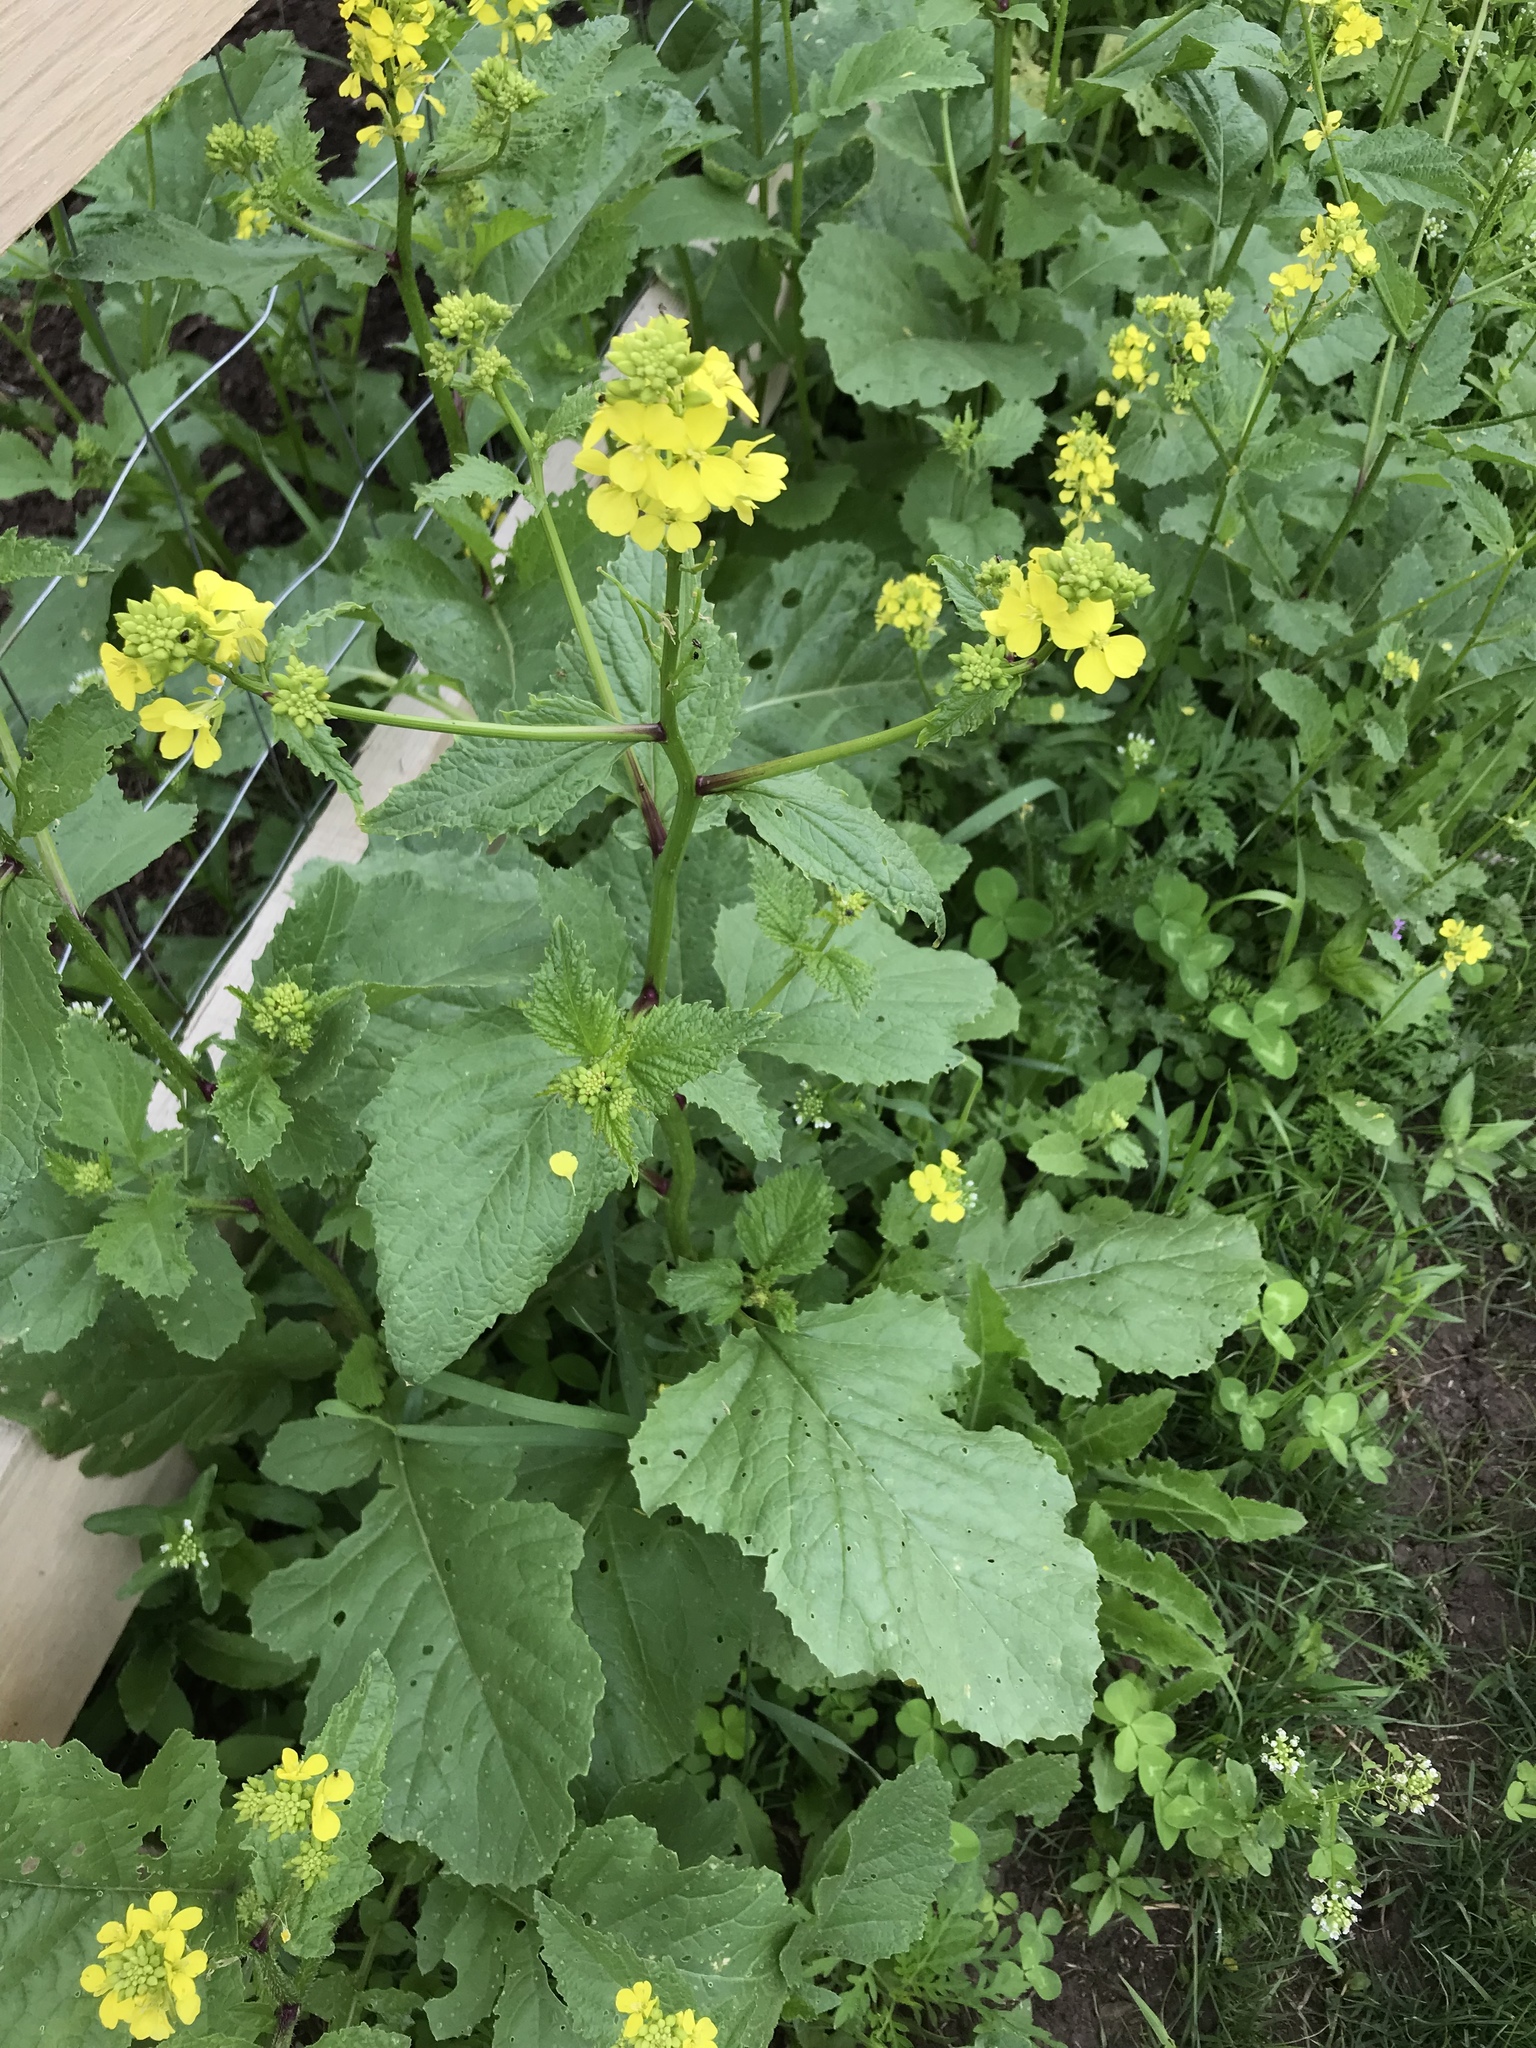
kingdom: Plantae
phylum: Tracheophyta
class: Magnoliopsida
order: Brassicales
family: Brassicaceae
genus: Sinapis
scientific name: Sinapis arvensis
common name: Charlock
